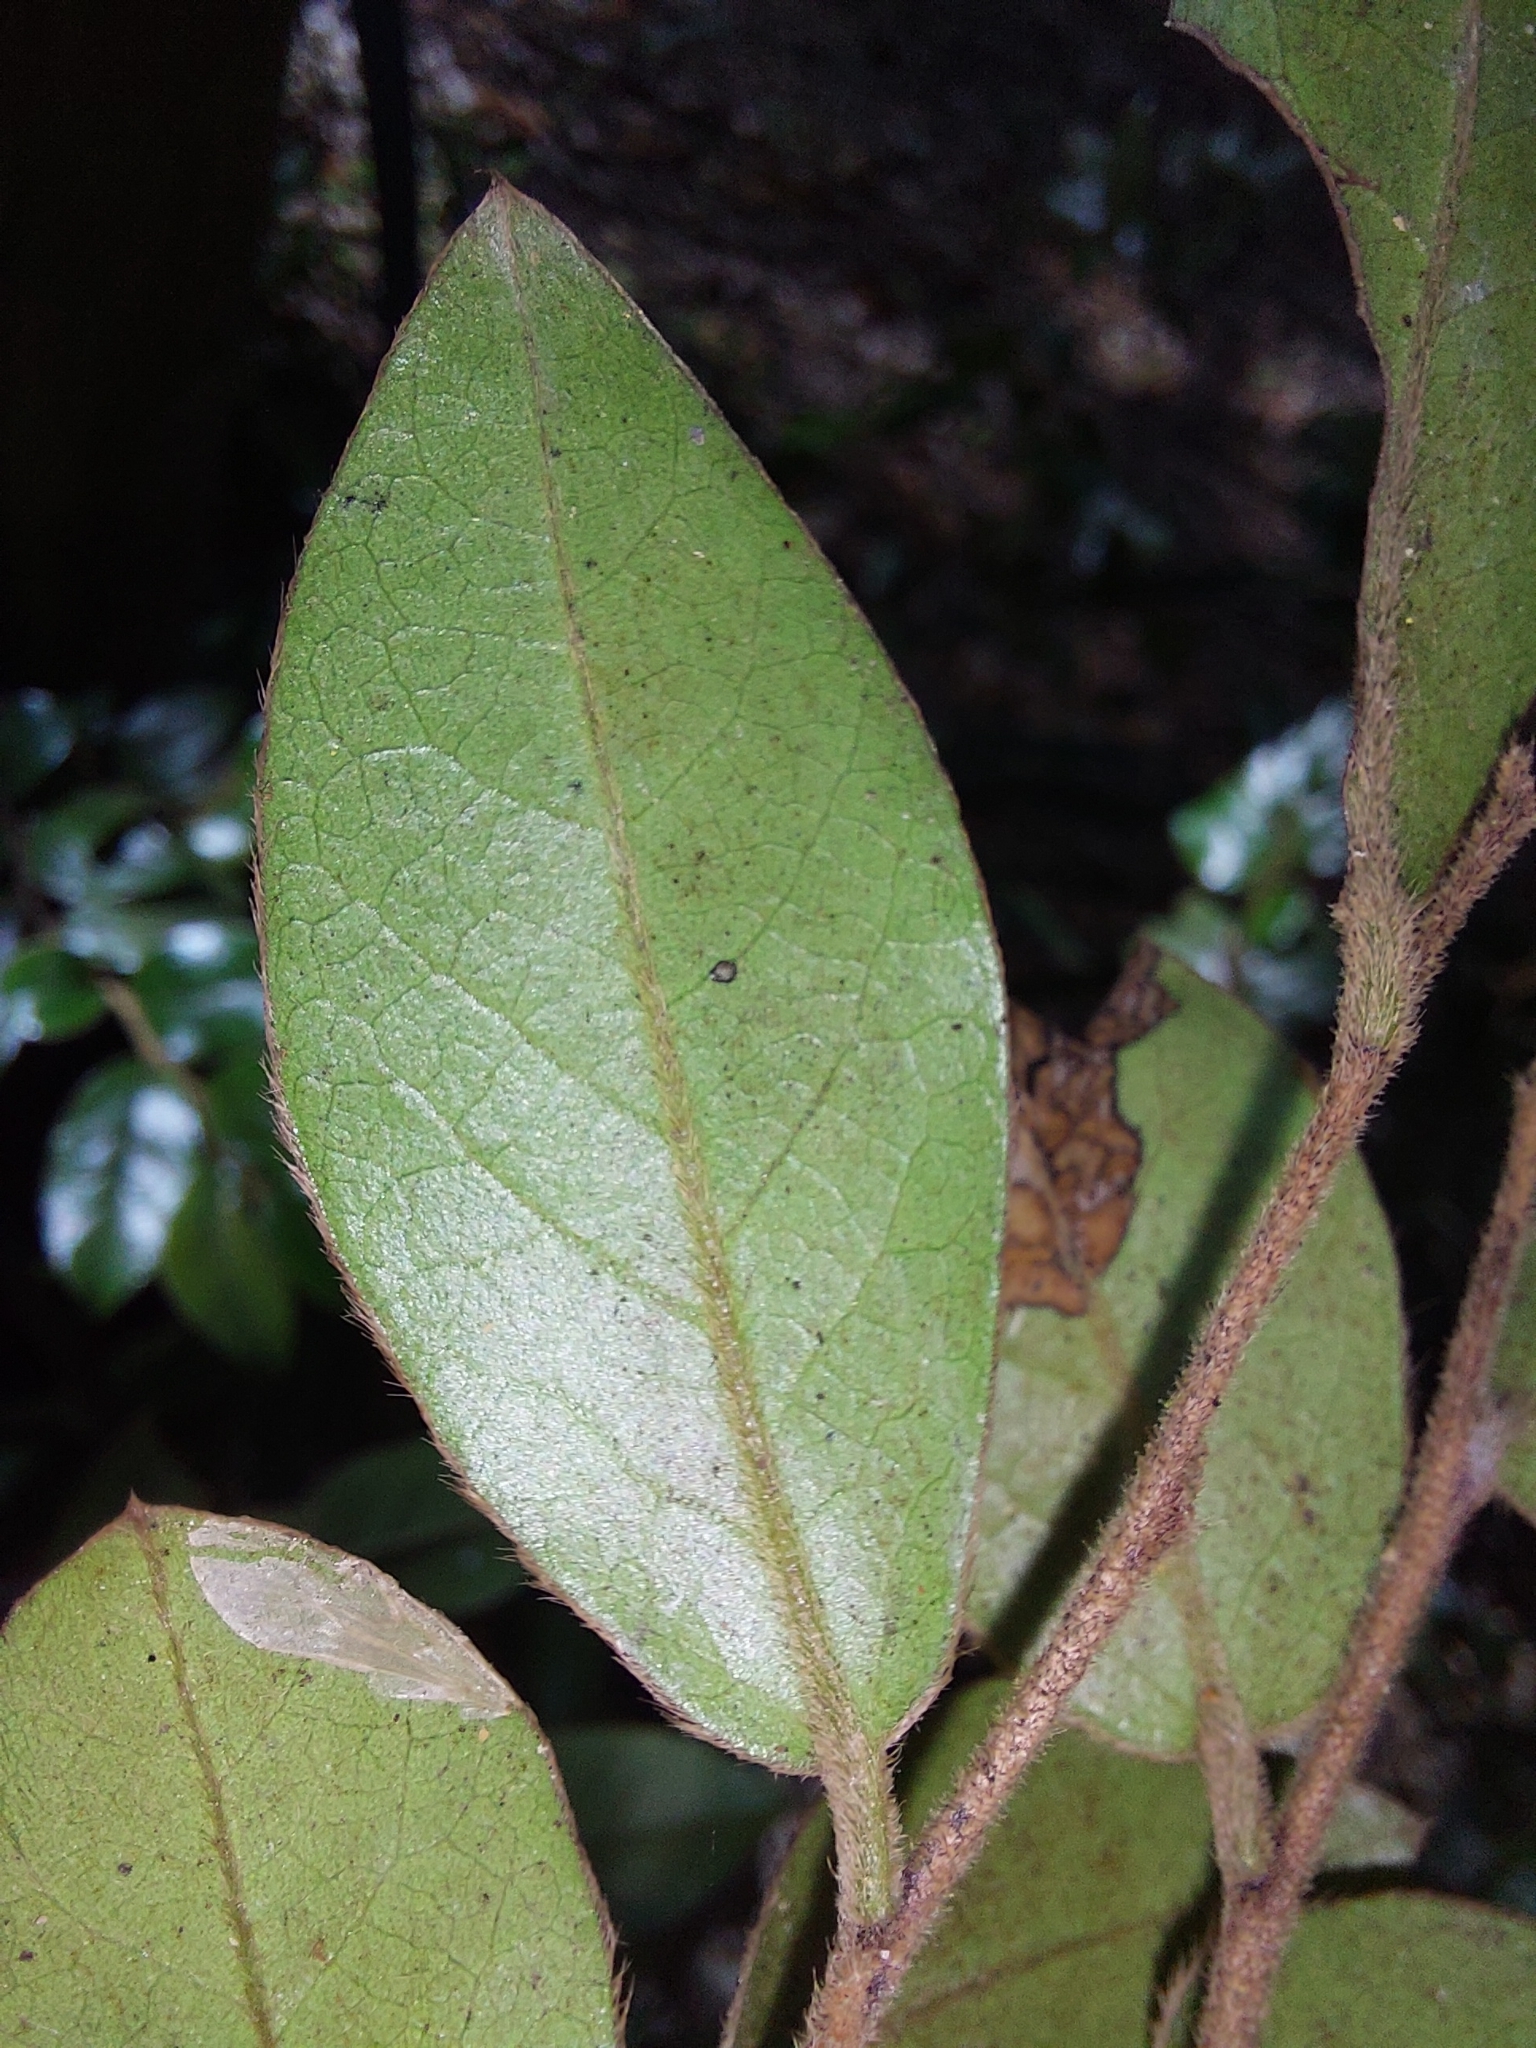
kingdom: Plantae
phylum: Tracheophyta
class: Magnoliopsida
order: Ericales
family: Ebenaceae
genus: Diospyros
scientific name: Diospyros whyteana
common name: Bladder-nut
